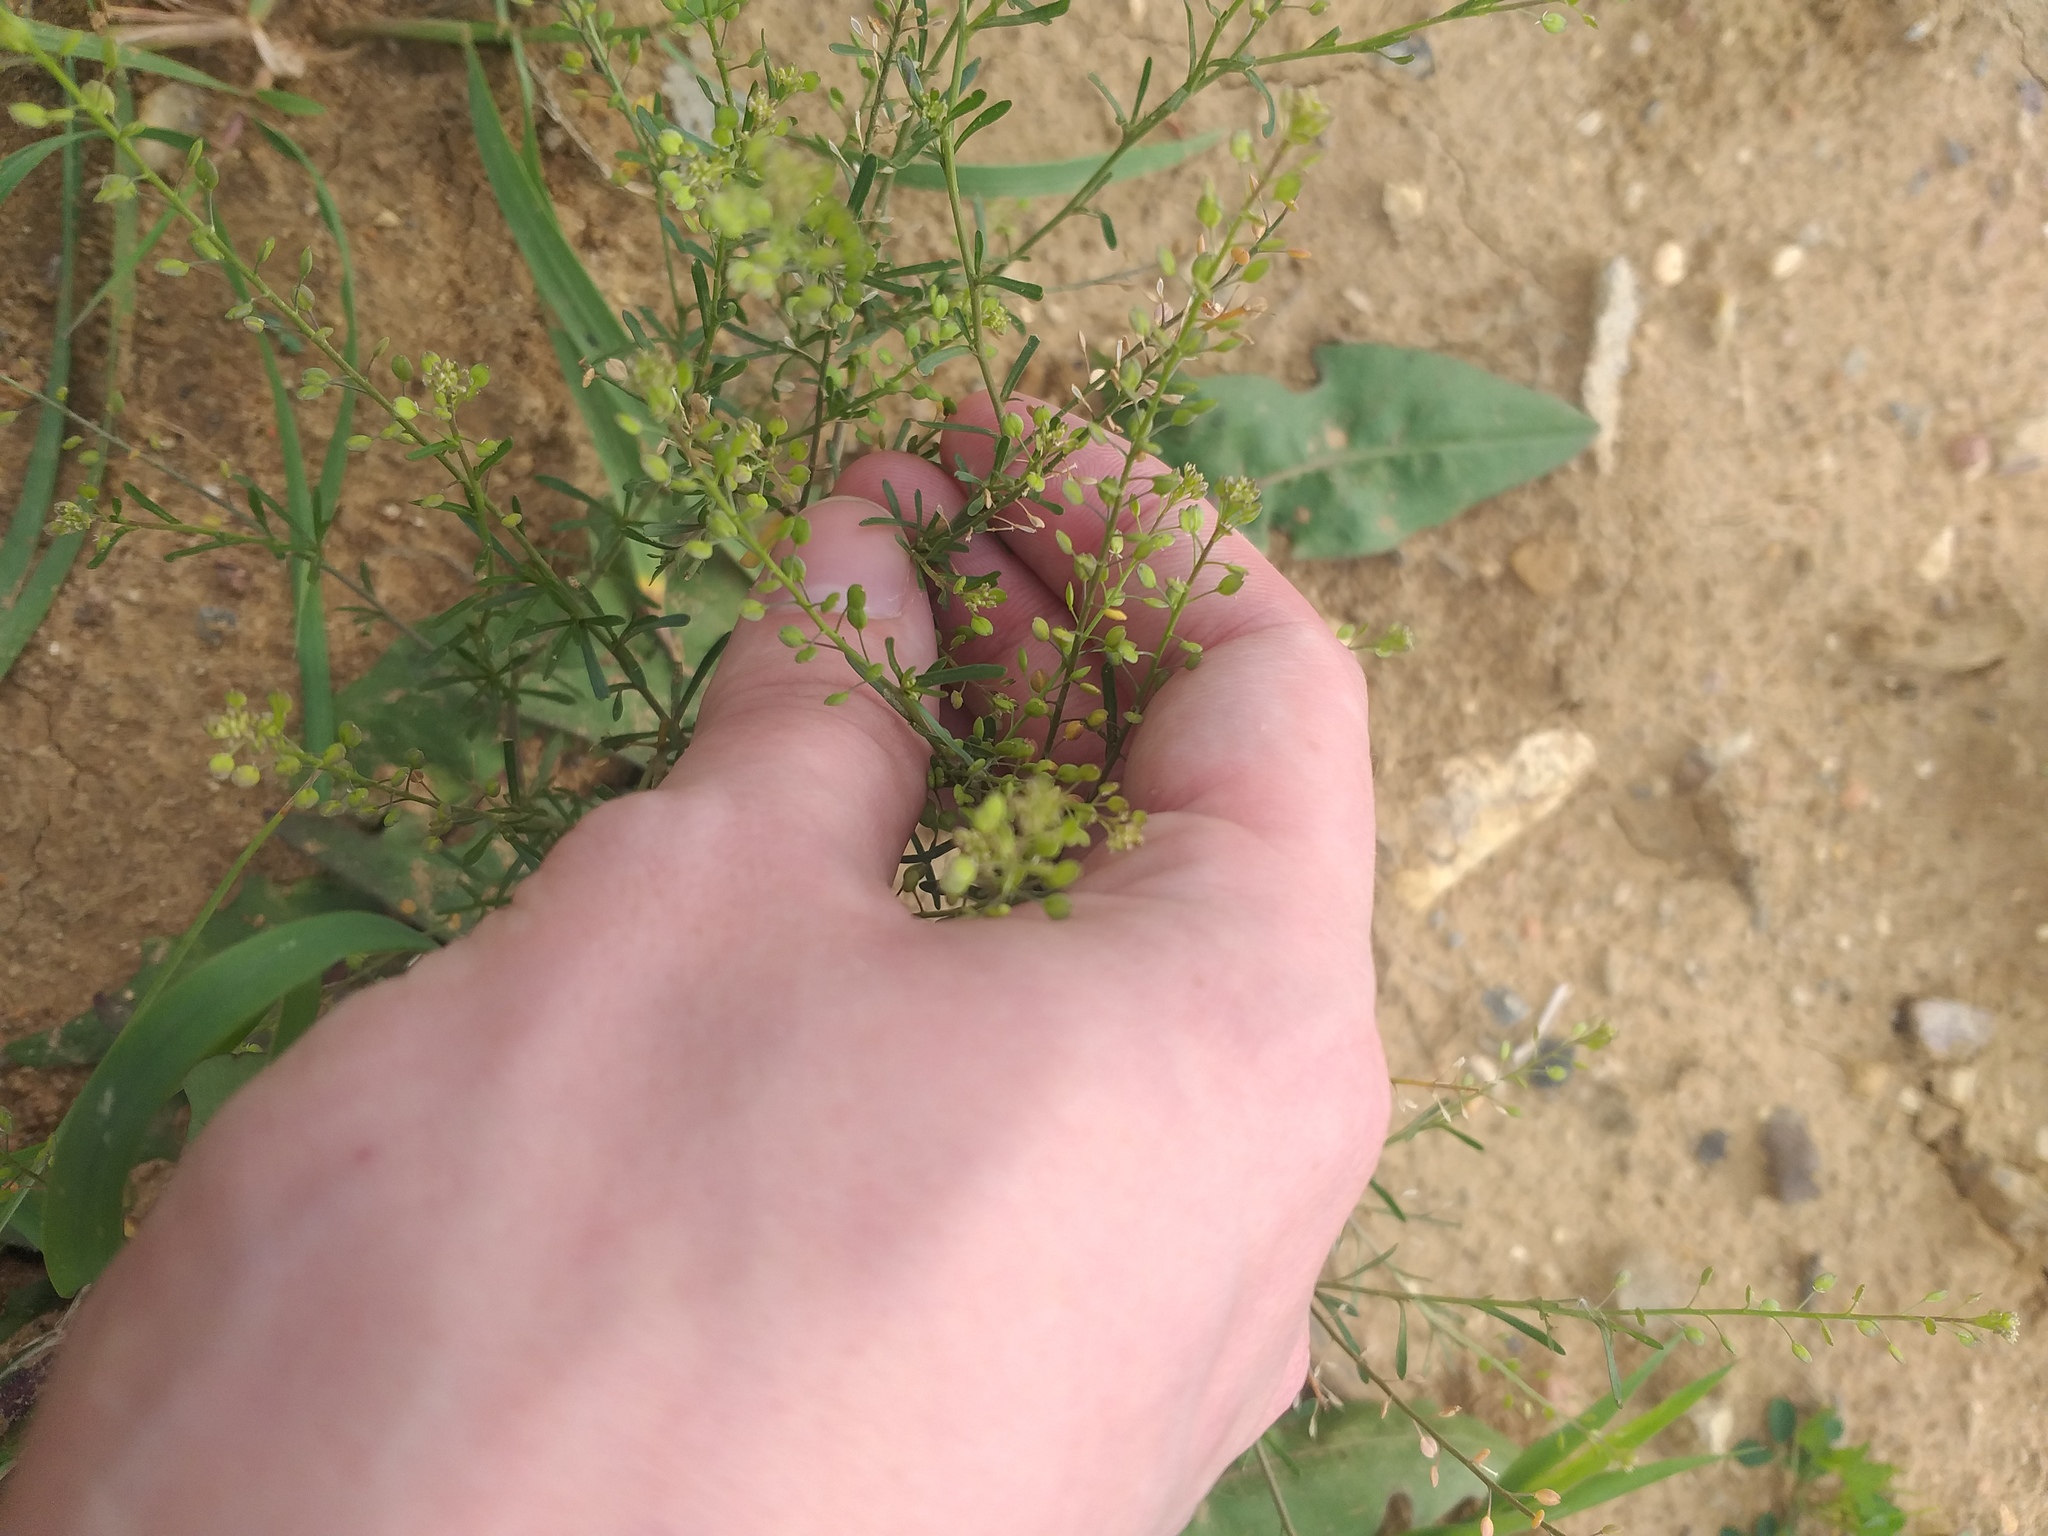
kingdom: Plantae
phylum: Tracheophyta
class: Magnoliopsida
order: Brassicales
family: Brassicaceae
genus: Lepidium
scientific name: Lepidium ruderale
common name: Narrow-leaved pepperwort
